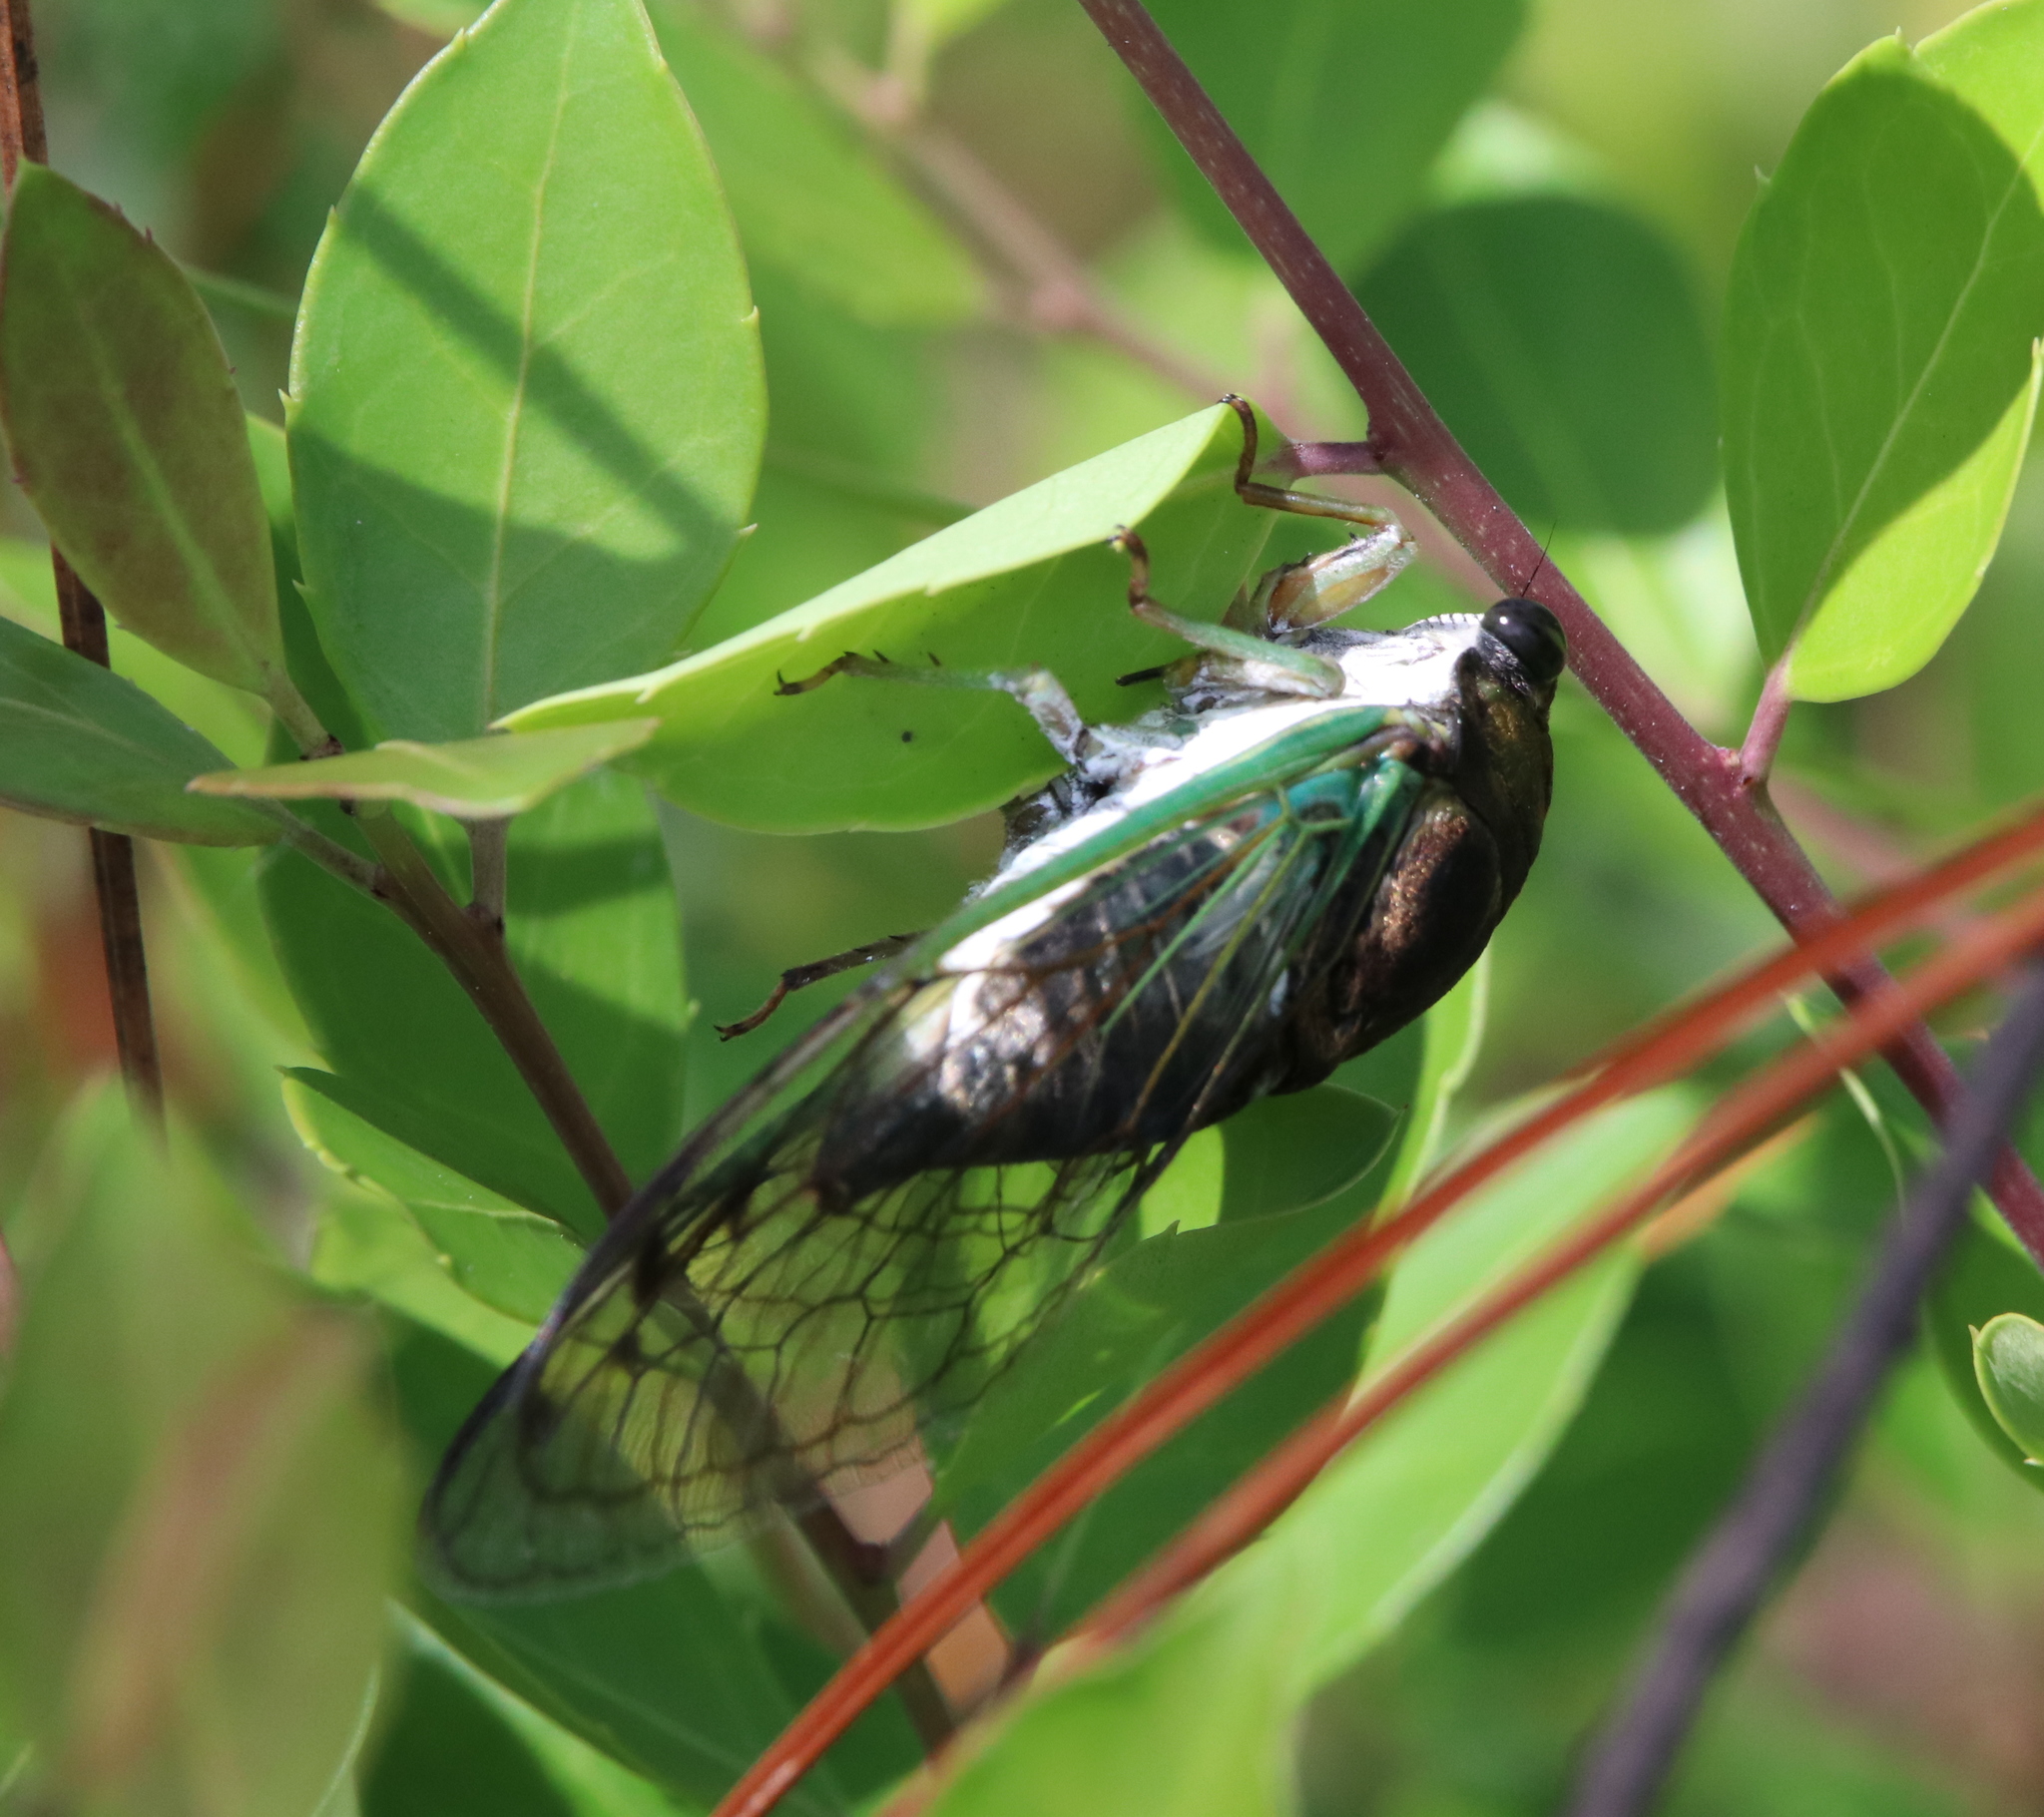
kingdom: Animalia
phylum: Arthropoda
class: Insecta
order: Hemiptera
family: Cicadidae
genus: Neotibicen
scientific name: Neotibicen tibicen
